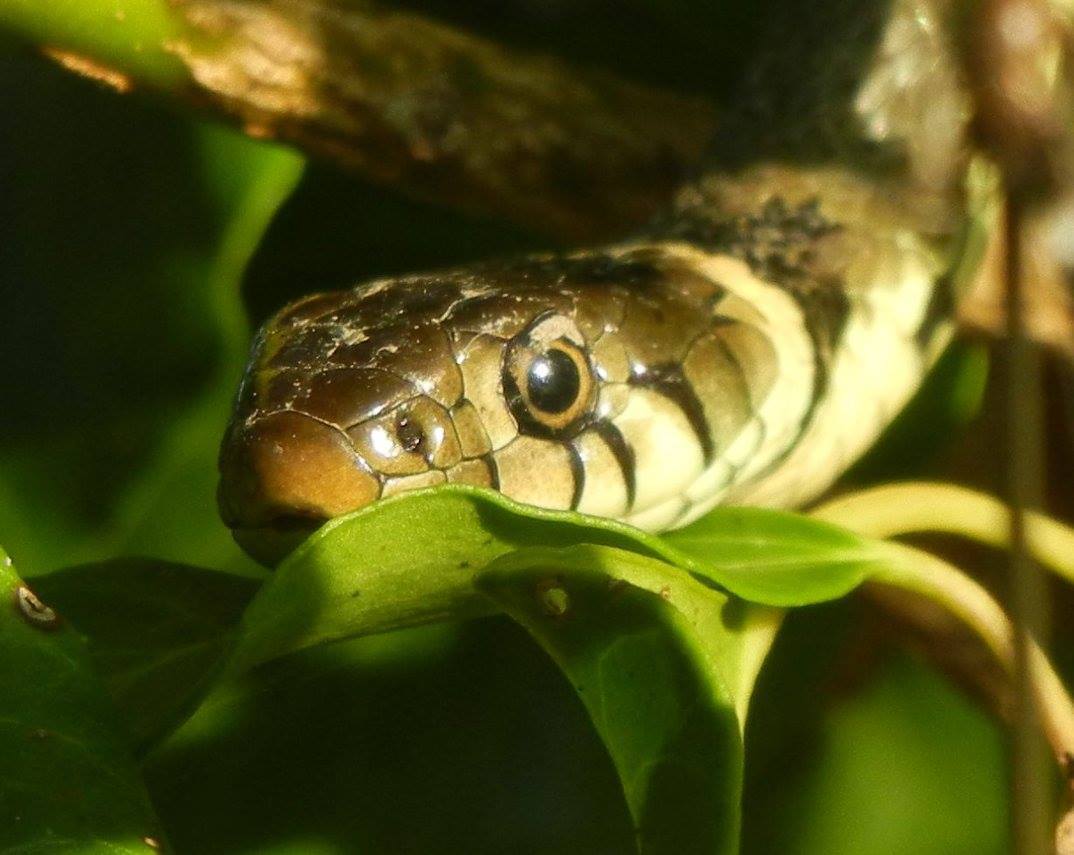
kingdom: Animalia
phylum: Chordata
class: Squamata
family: Colubridae
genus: Natrix
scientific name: Natrix helvetica
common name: Banded grass snake
